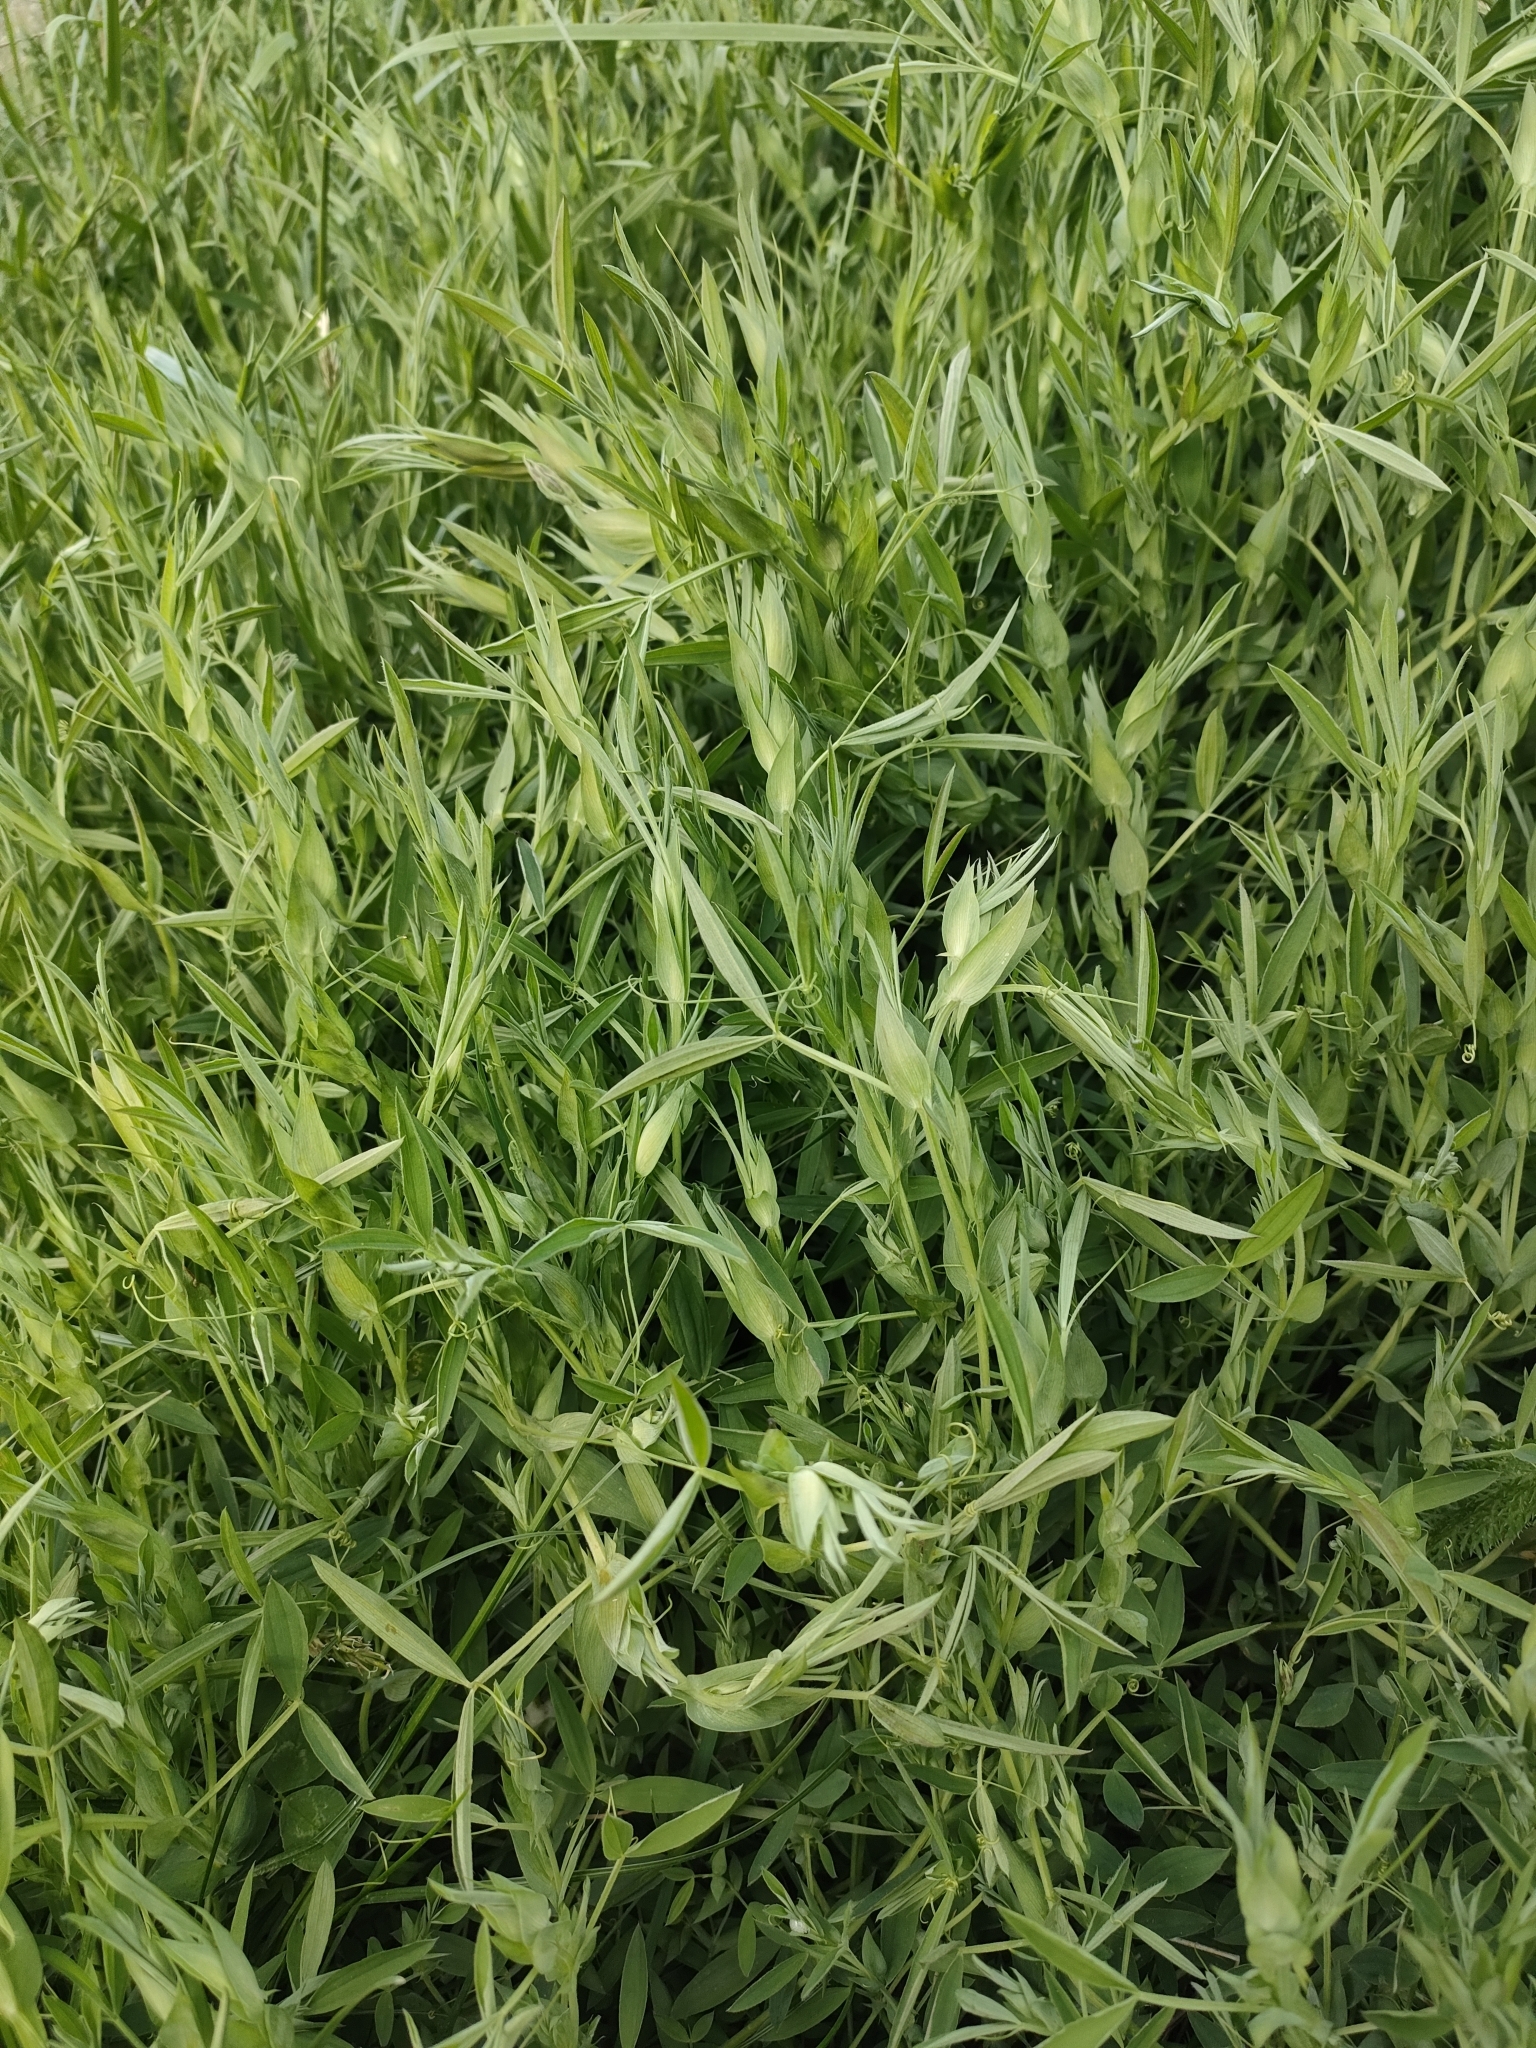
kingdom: Plantae
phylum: Tracheophyta
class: Magnoliopsida
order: Fabales
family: Fabaceae
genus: Lathyrus
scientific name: Lathyrus pratensis
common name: Meadow vetchling
